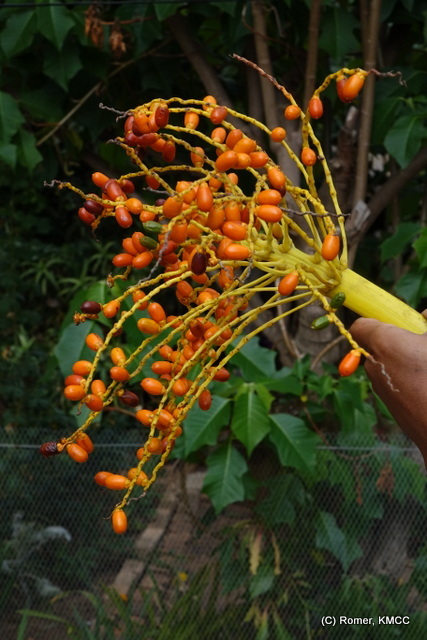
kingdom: Plantae
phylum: Tracheophyta
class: Liliopsida
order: Arecales
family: Arecaceae
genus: Phoenix
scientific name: Phoenix reclinata
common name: Senegal date palm
